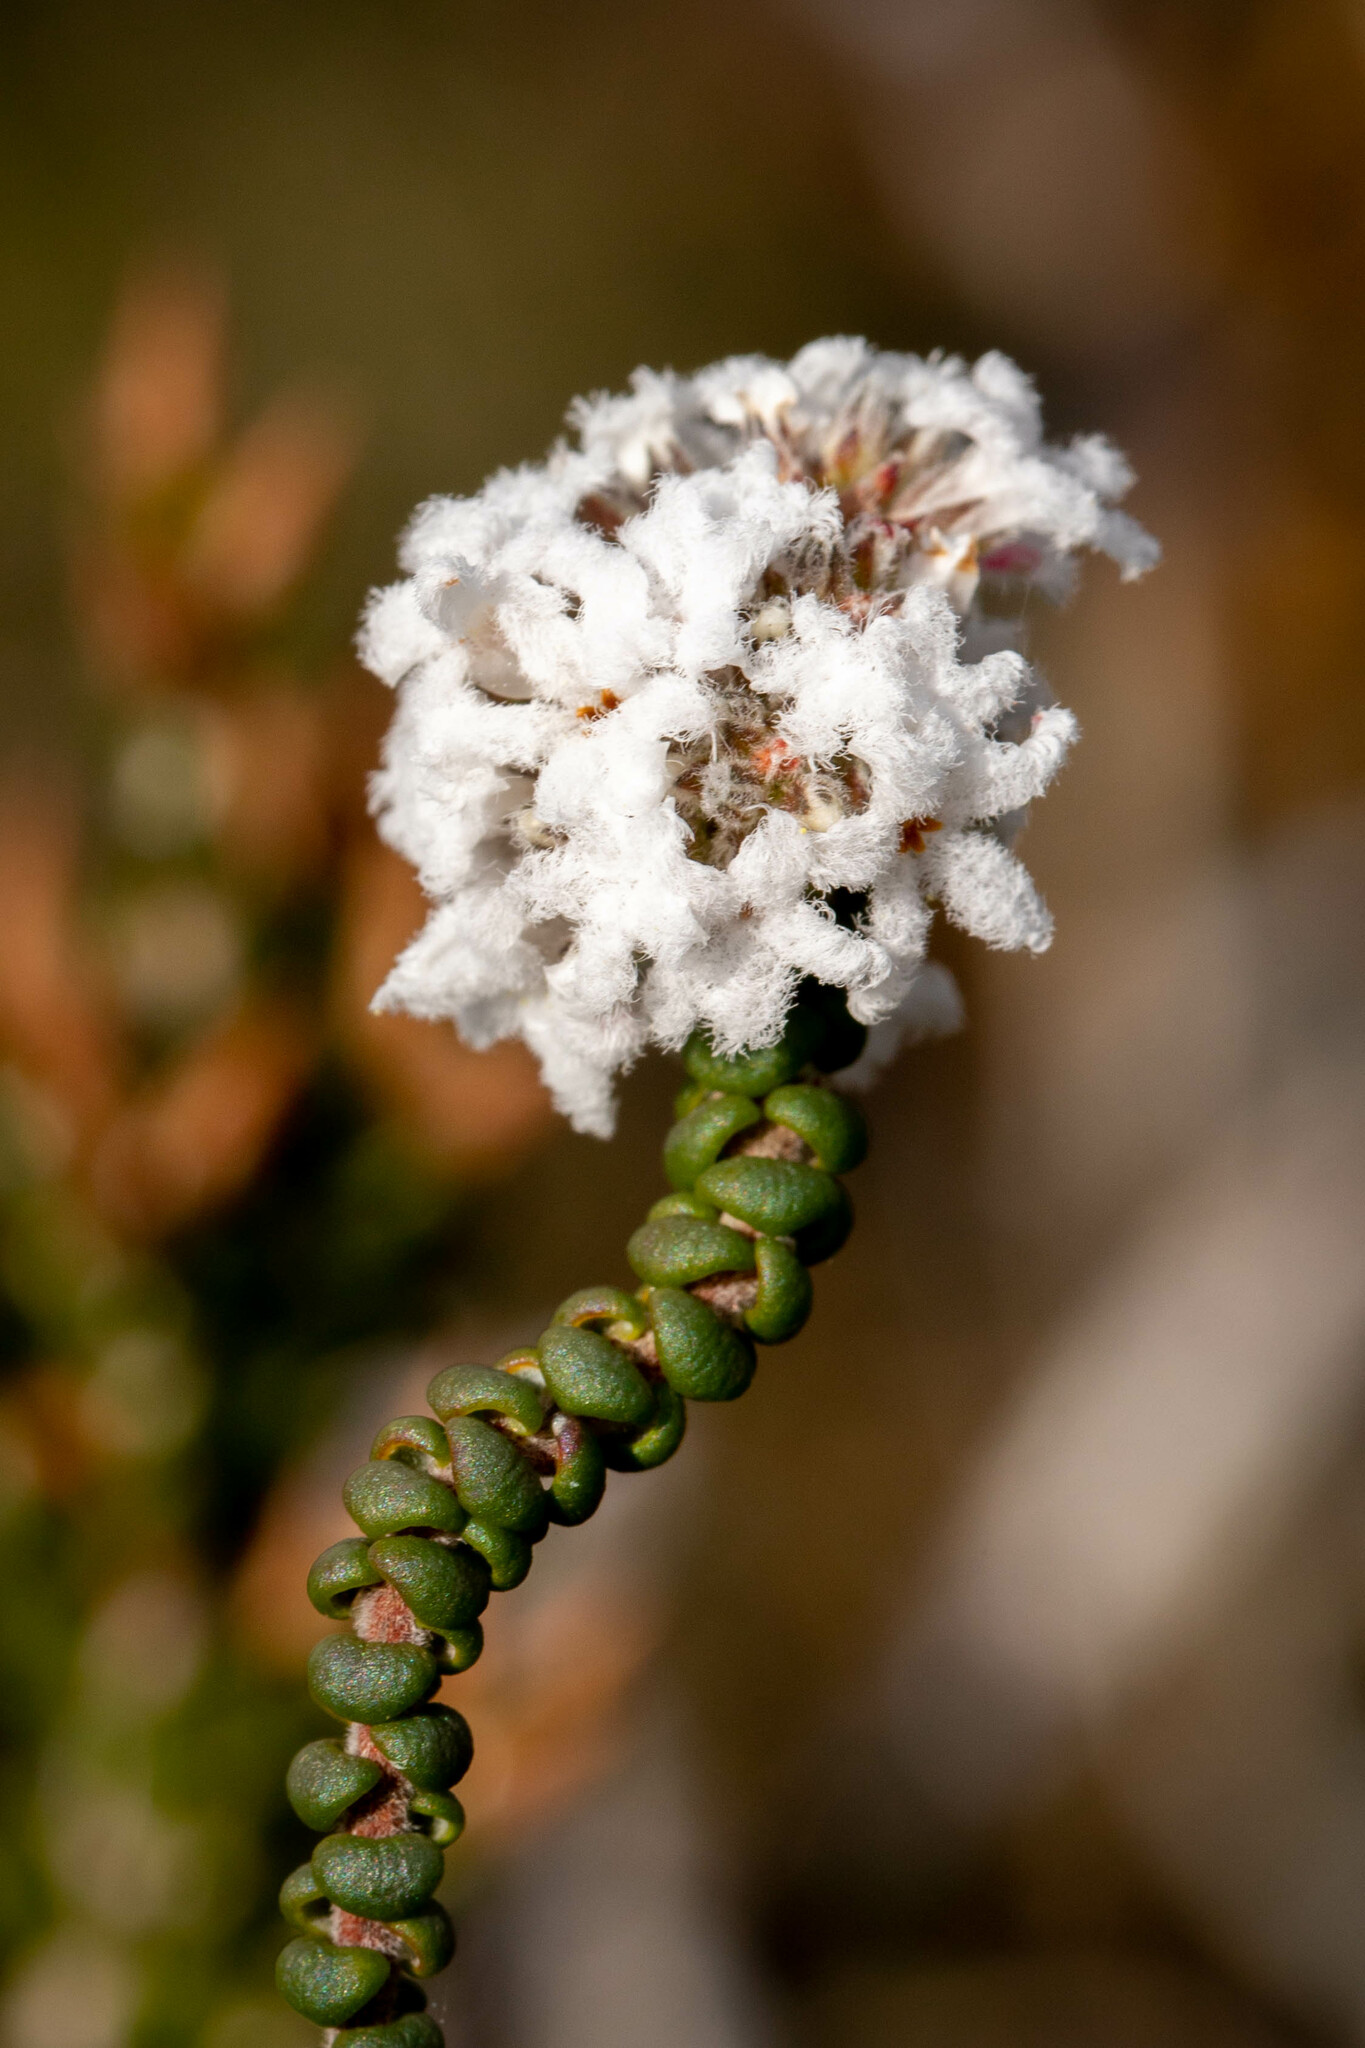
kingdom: Plantae
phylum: Tracheophyta
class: Magnoliopsida
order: Ericales
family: Ericaceae
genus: Leucopogon
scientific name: Leucopogon gibbosus
